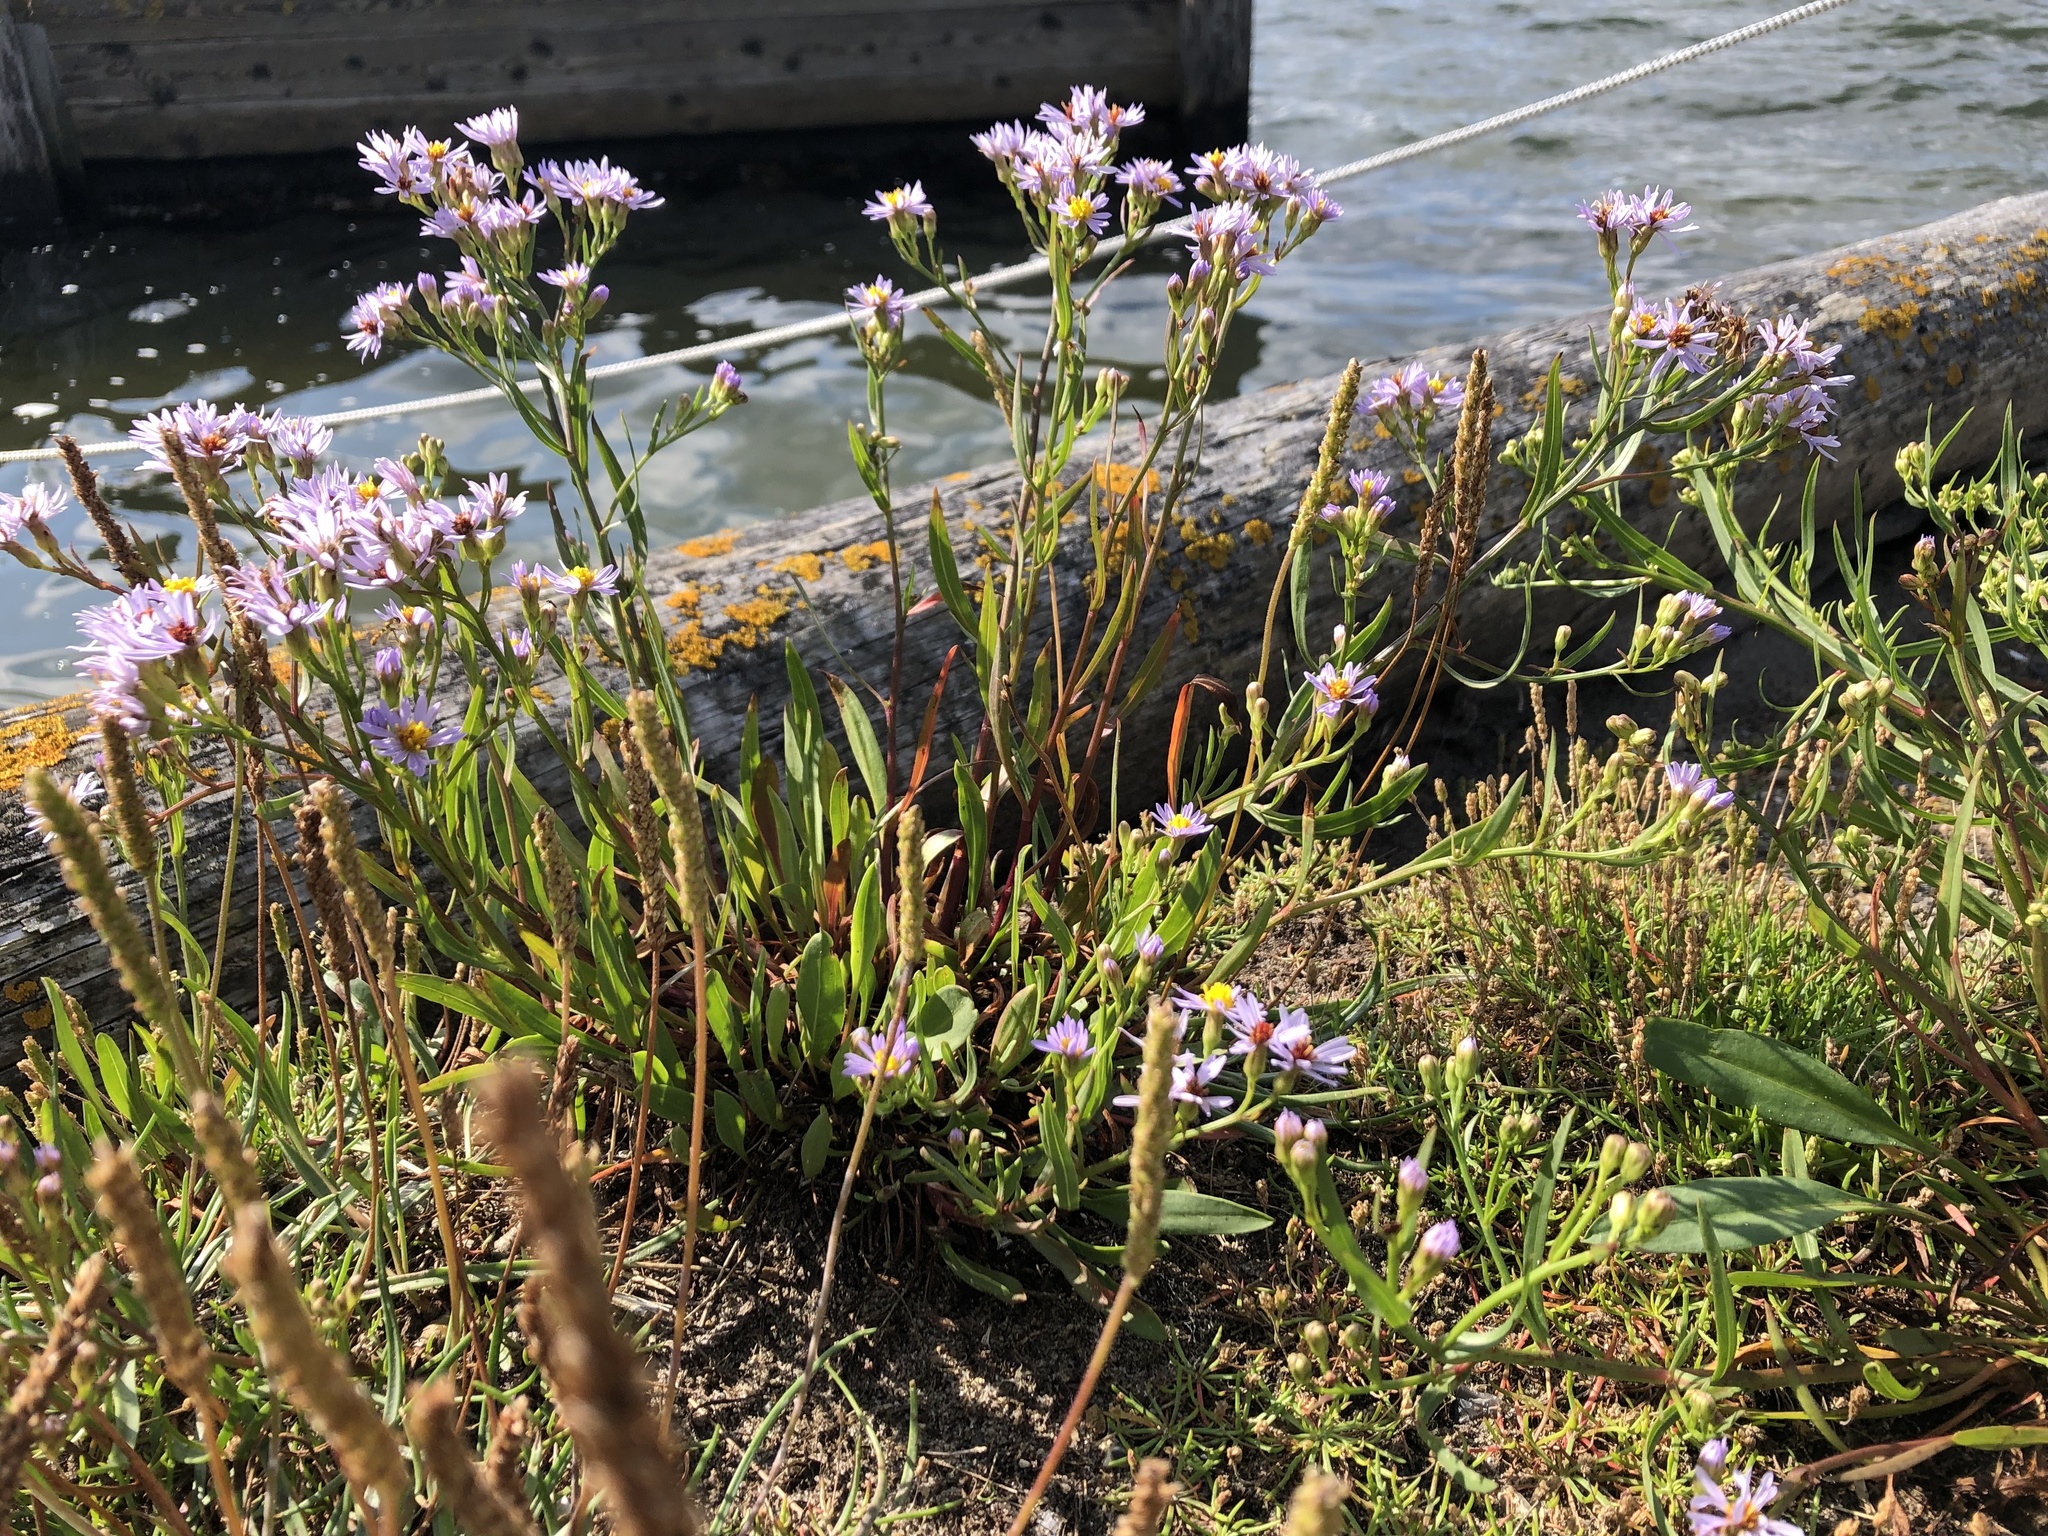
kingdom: Plantae
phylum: Tracheophyta
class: Magnoliopsida
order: Asterales
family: Asteraceae
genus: Tripolium
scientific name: Tripolium pannonicum
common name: Sea aster
